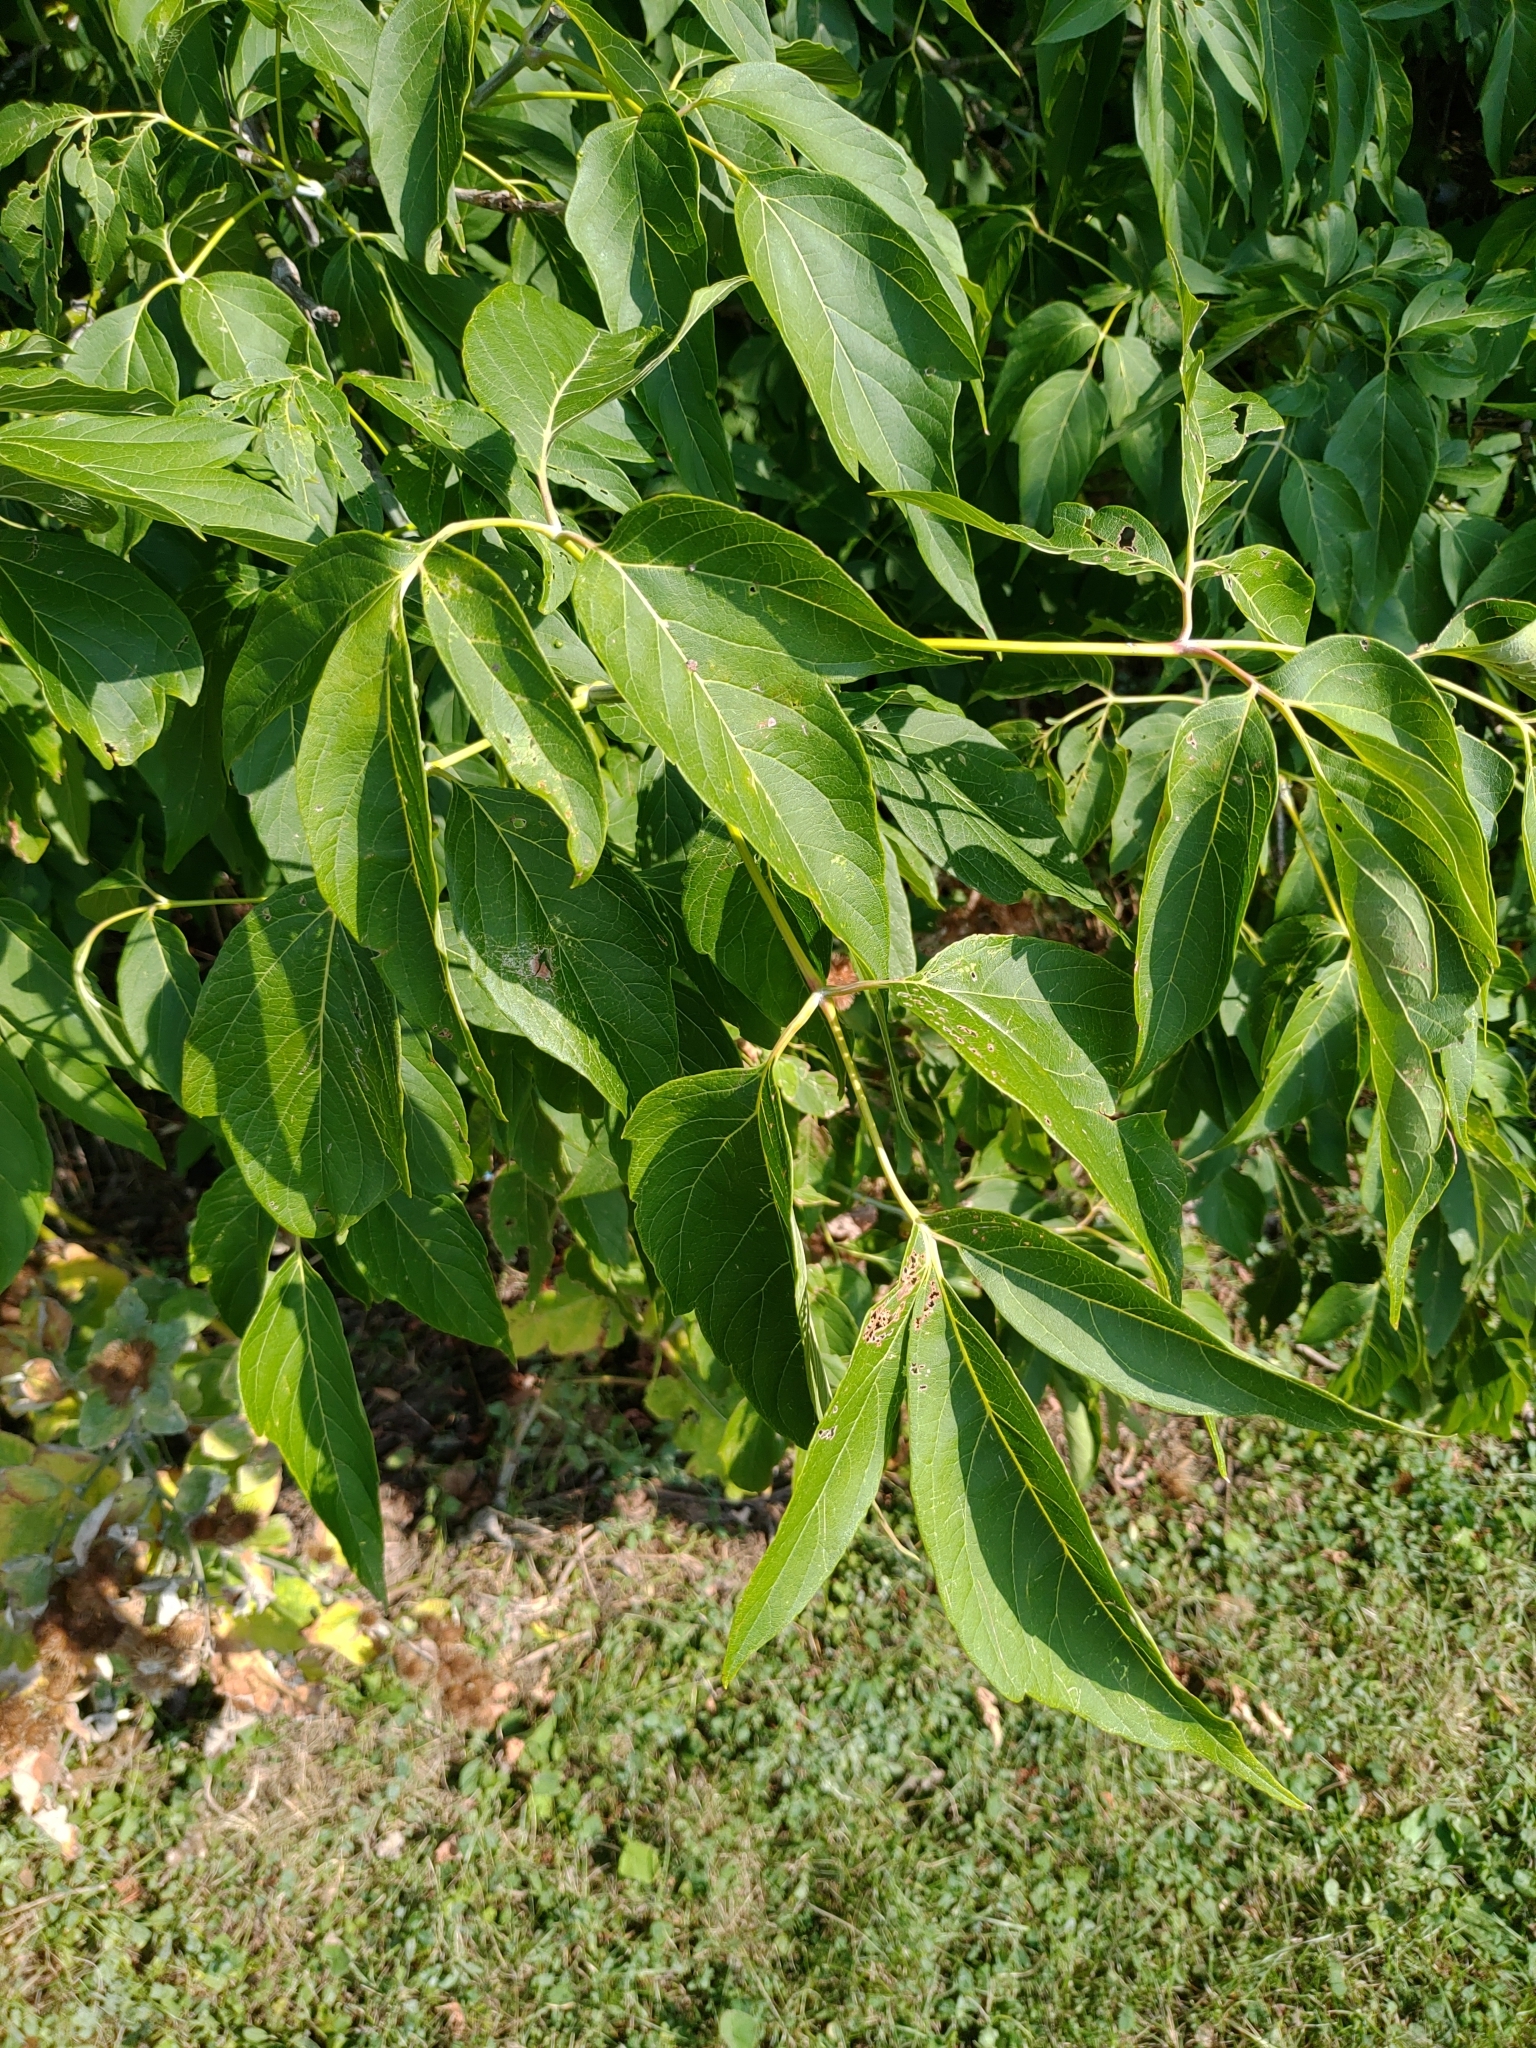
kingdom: Plantae
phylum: Tracheophyta
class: Magnoliopsida
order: Sapindales
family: Sapindaceae
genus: Acer
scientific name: Acer negundo
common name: Ashleaf maple
